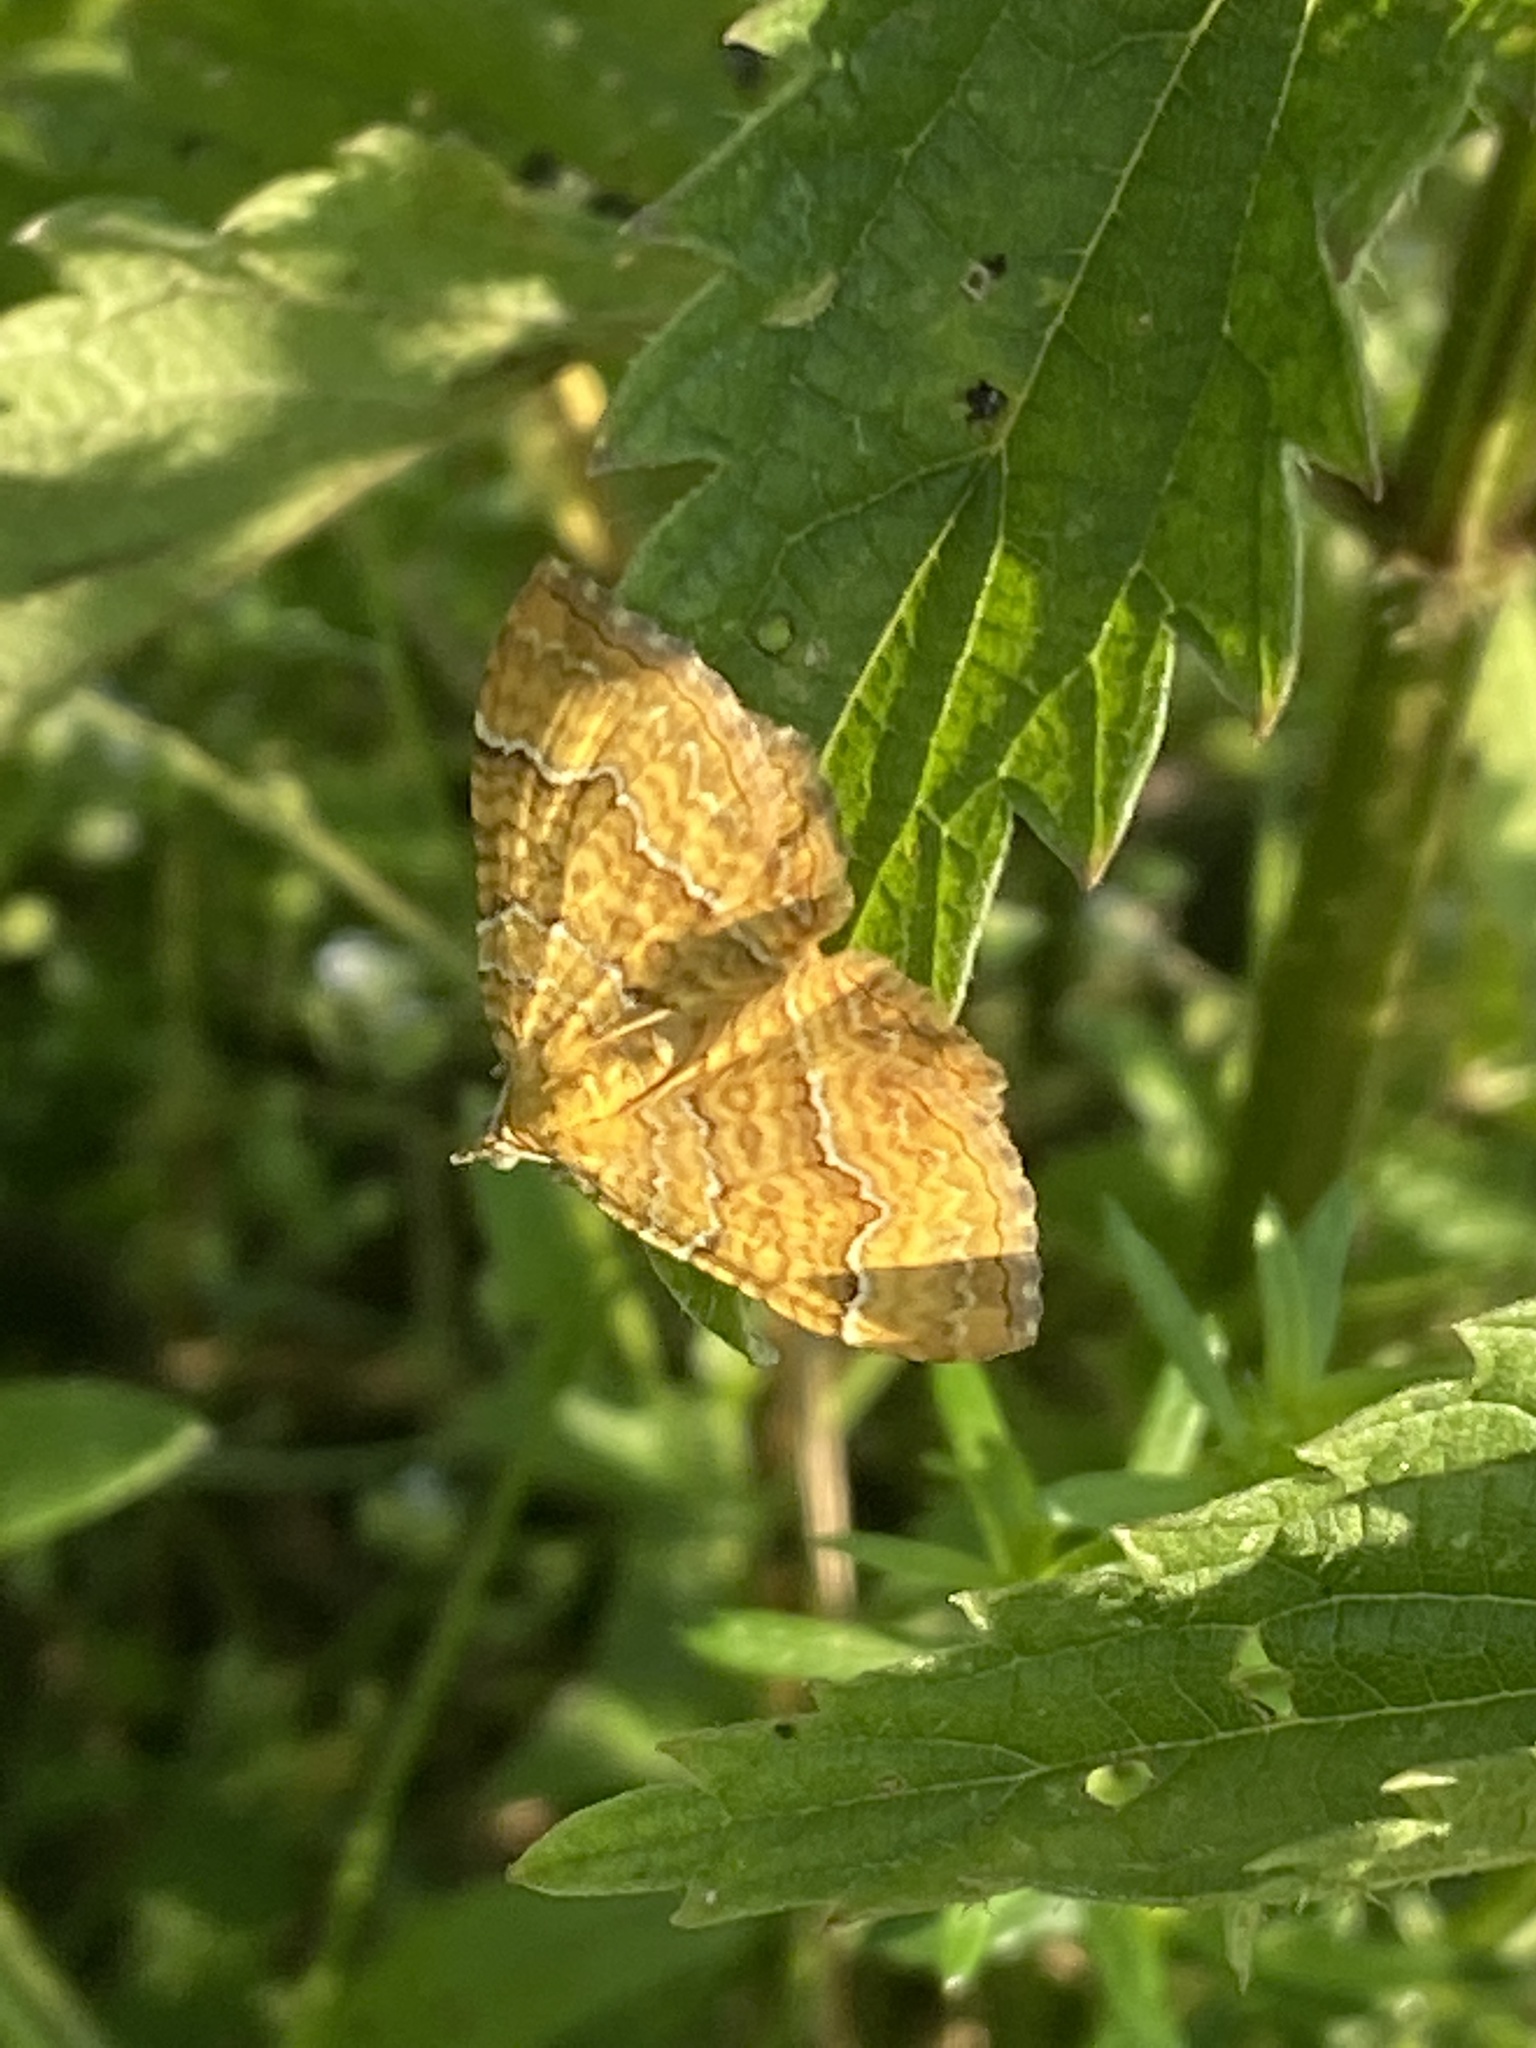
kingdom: Animalia
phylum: Arthropoda
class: Insecta
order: Lepidoptera
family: Geometridae
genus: Camptogramma
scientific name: Camptogramma bilineata
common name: Yellow shell
